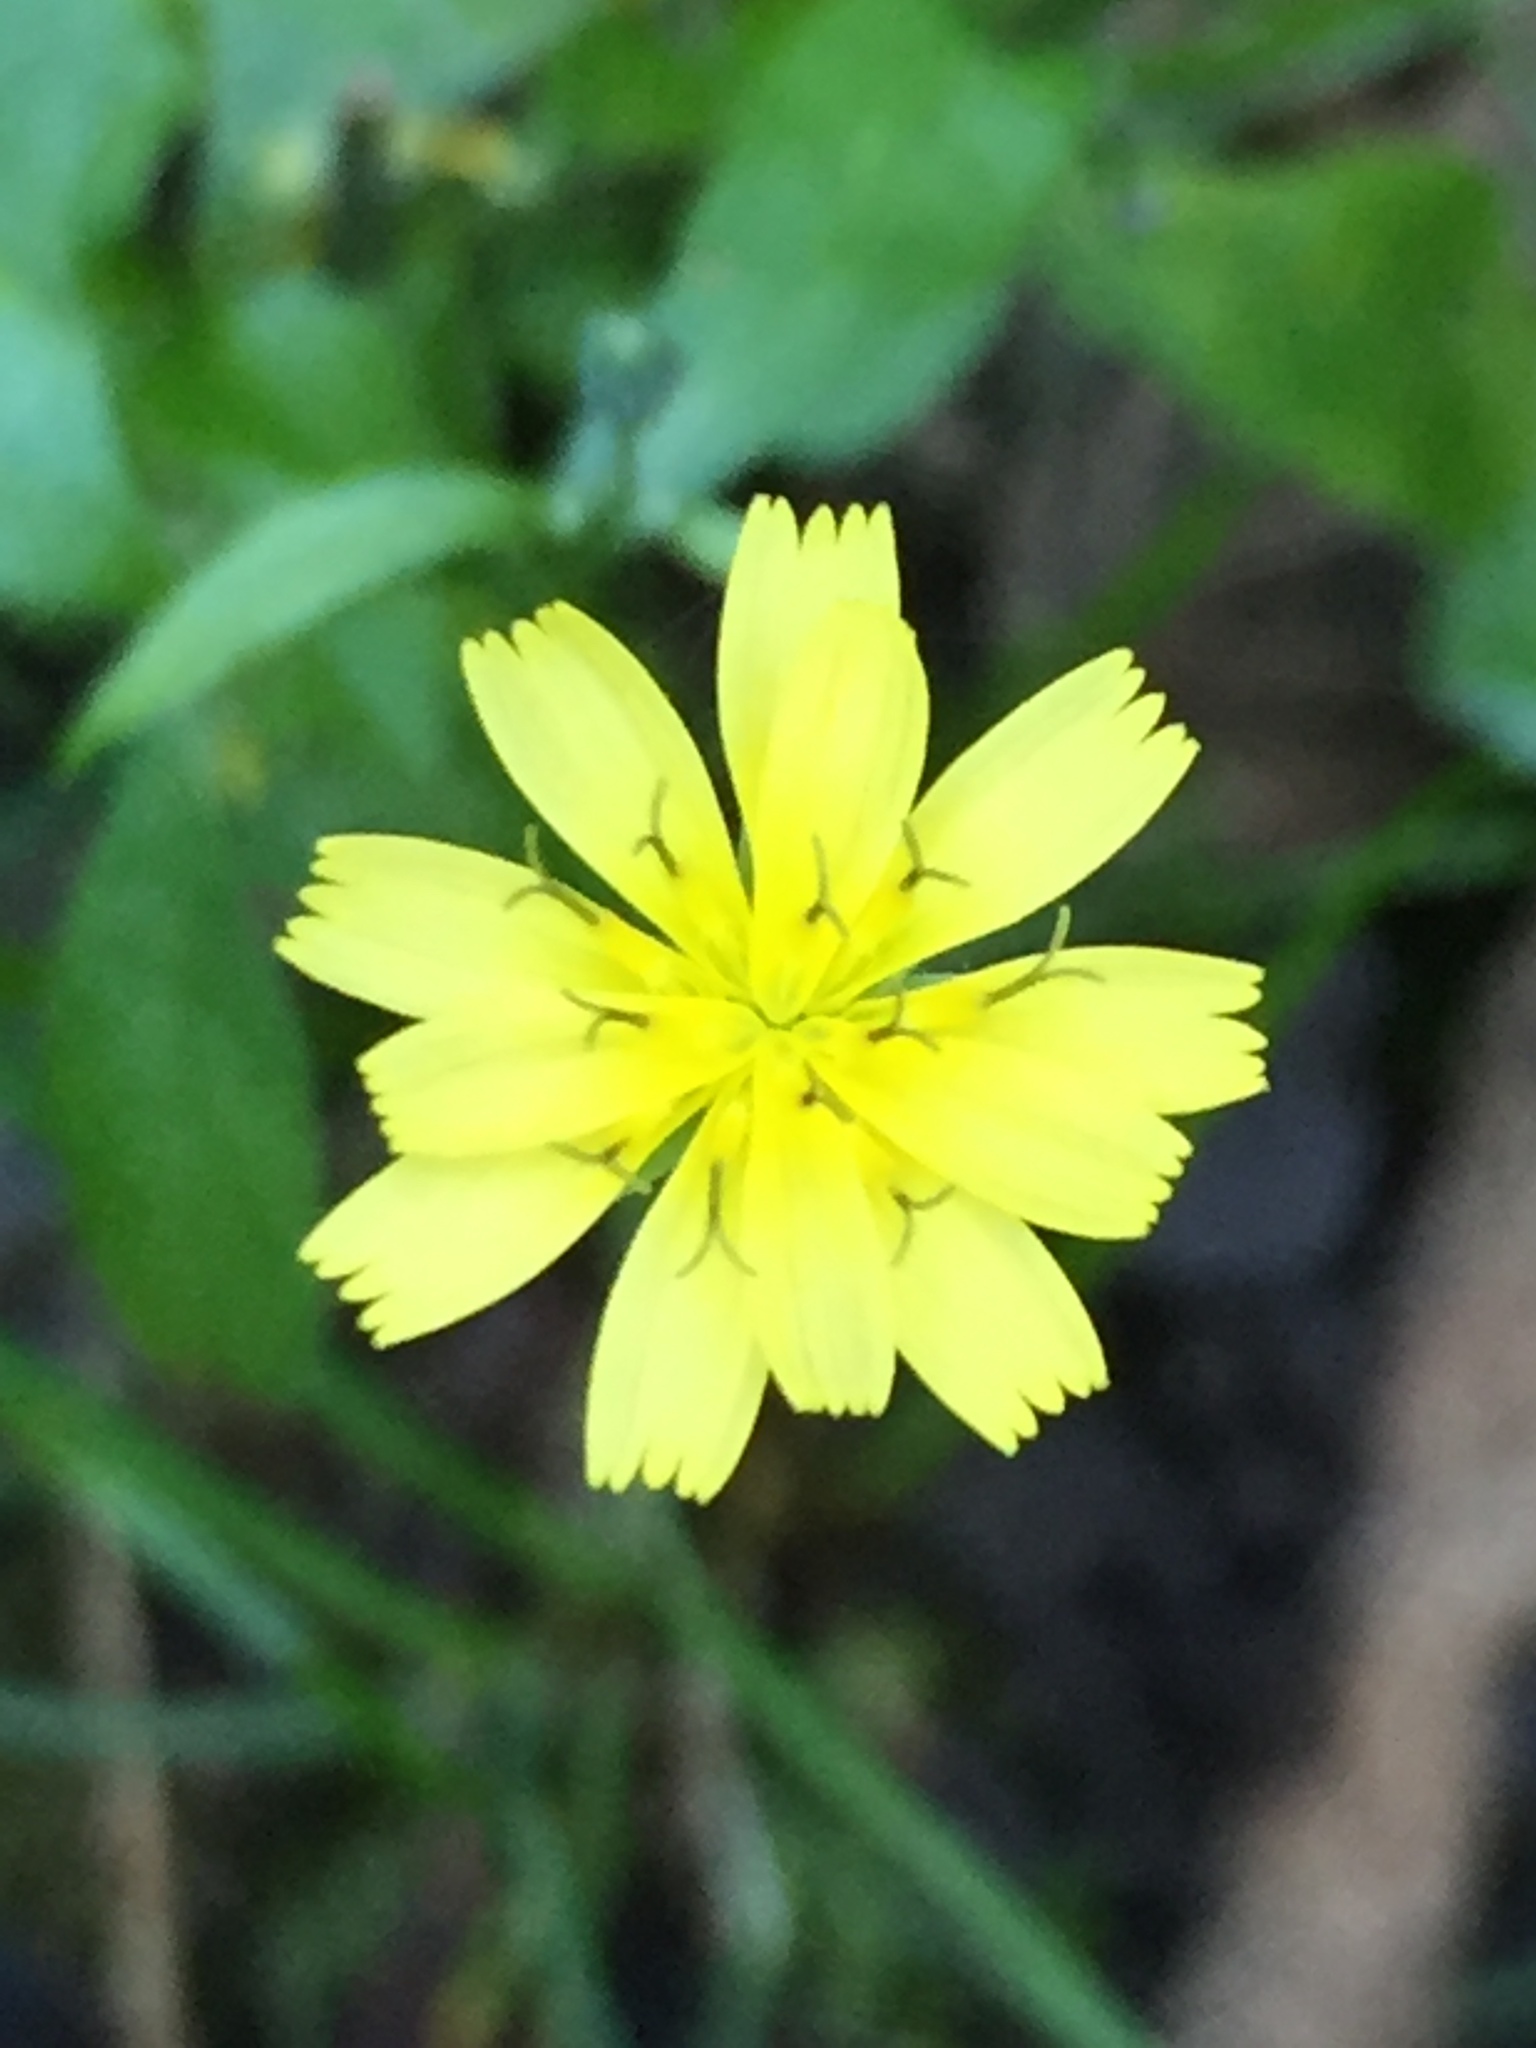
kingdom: Plantae
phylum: Tracheophyta
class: Magnoliopsida
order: Asterales
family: Asteraceae
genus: Lapsana
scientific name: Lapsana communis
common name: Nipplewort
